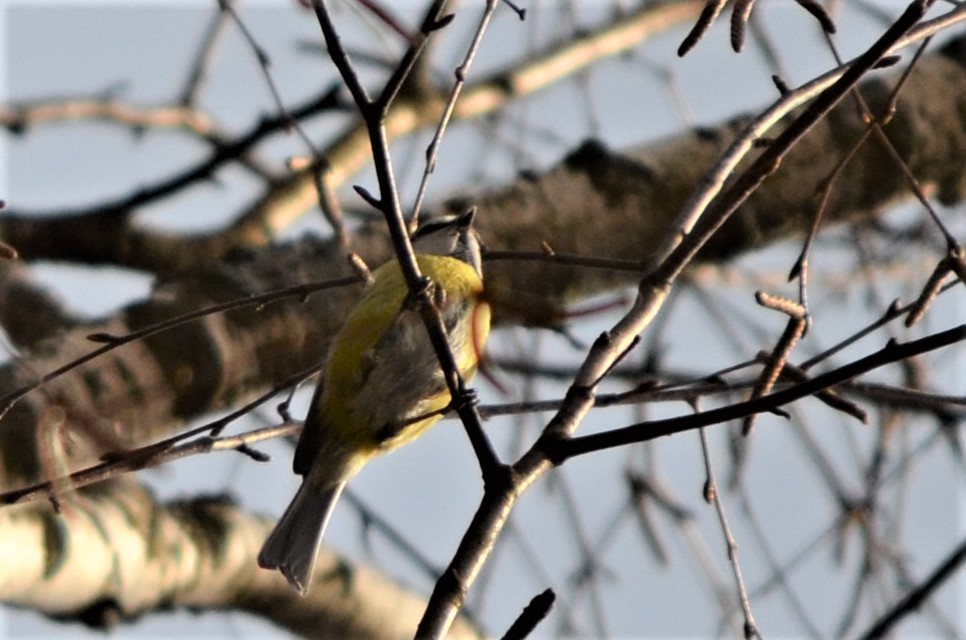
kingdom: Animalia
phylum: Chordata
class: Aves
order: Passeriformes
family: Paridae
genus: Cyanistes
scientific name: Cyanistes caeruleus
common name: Eurasian blue tit
